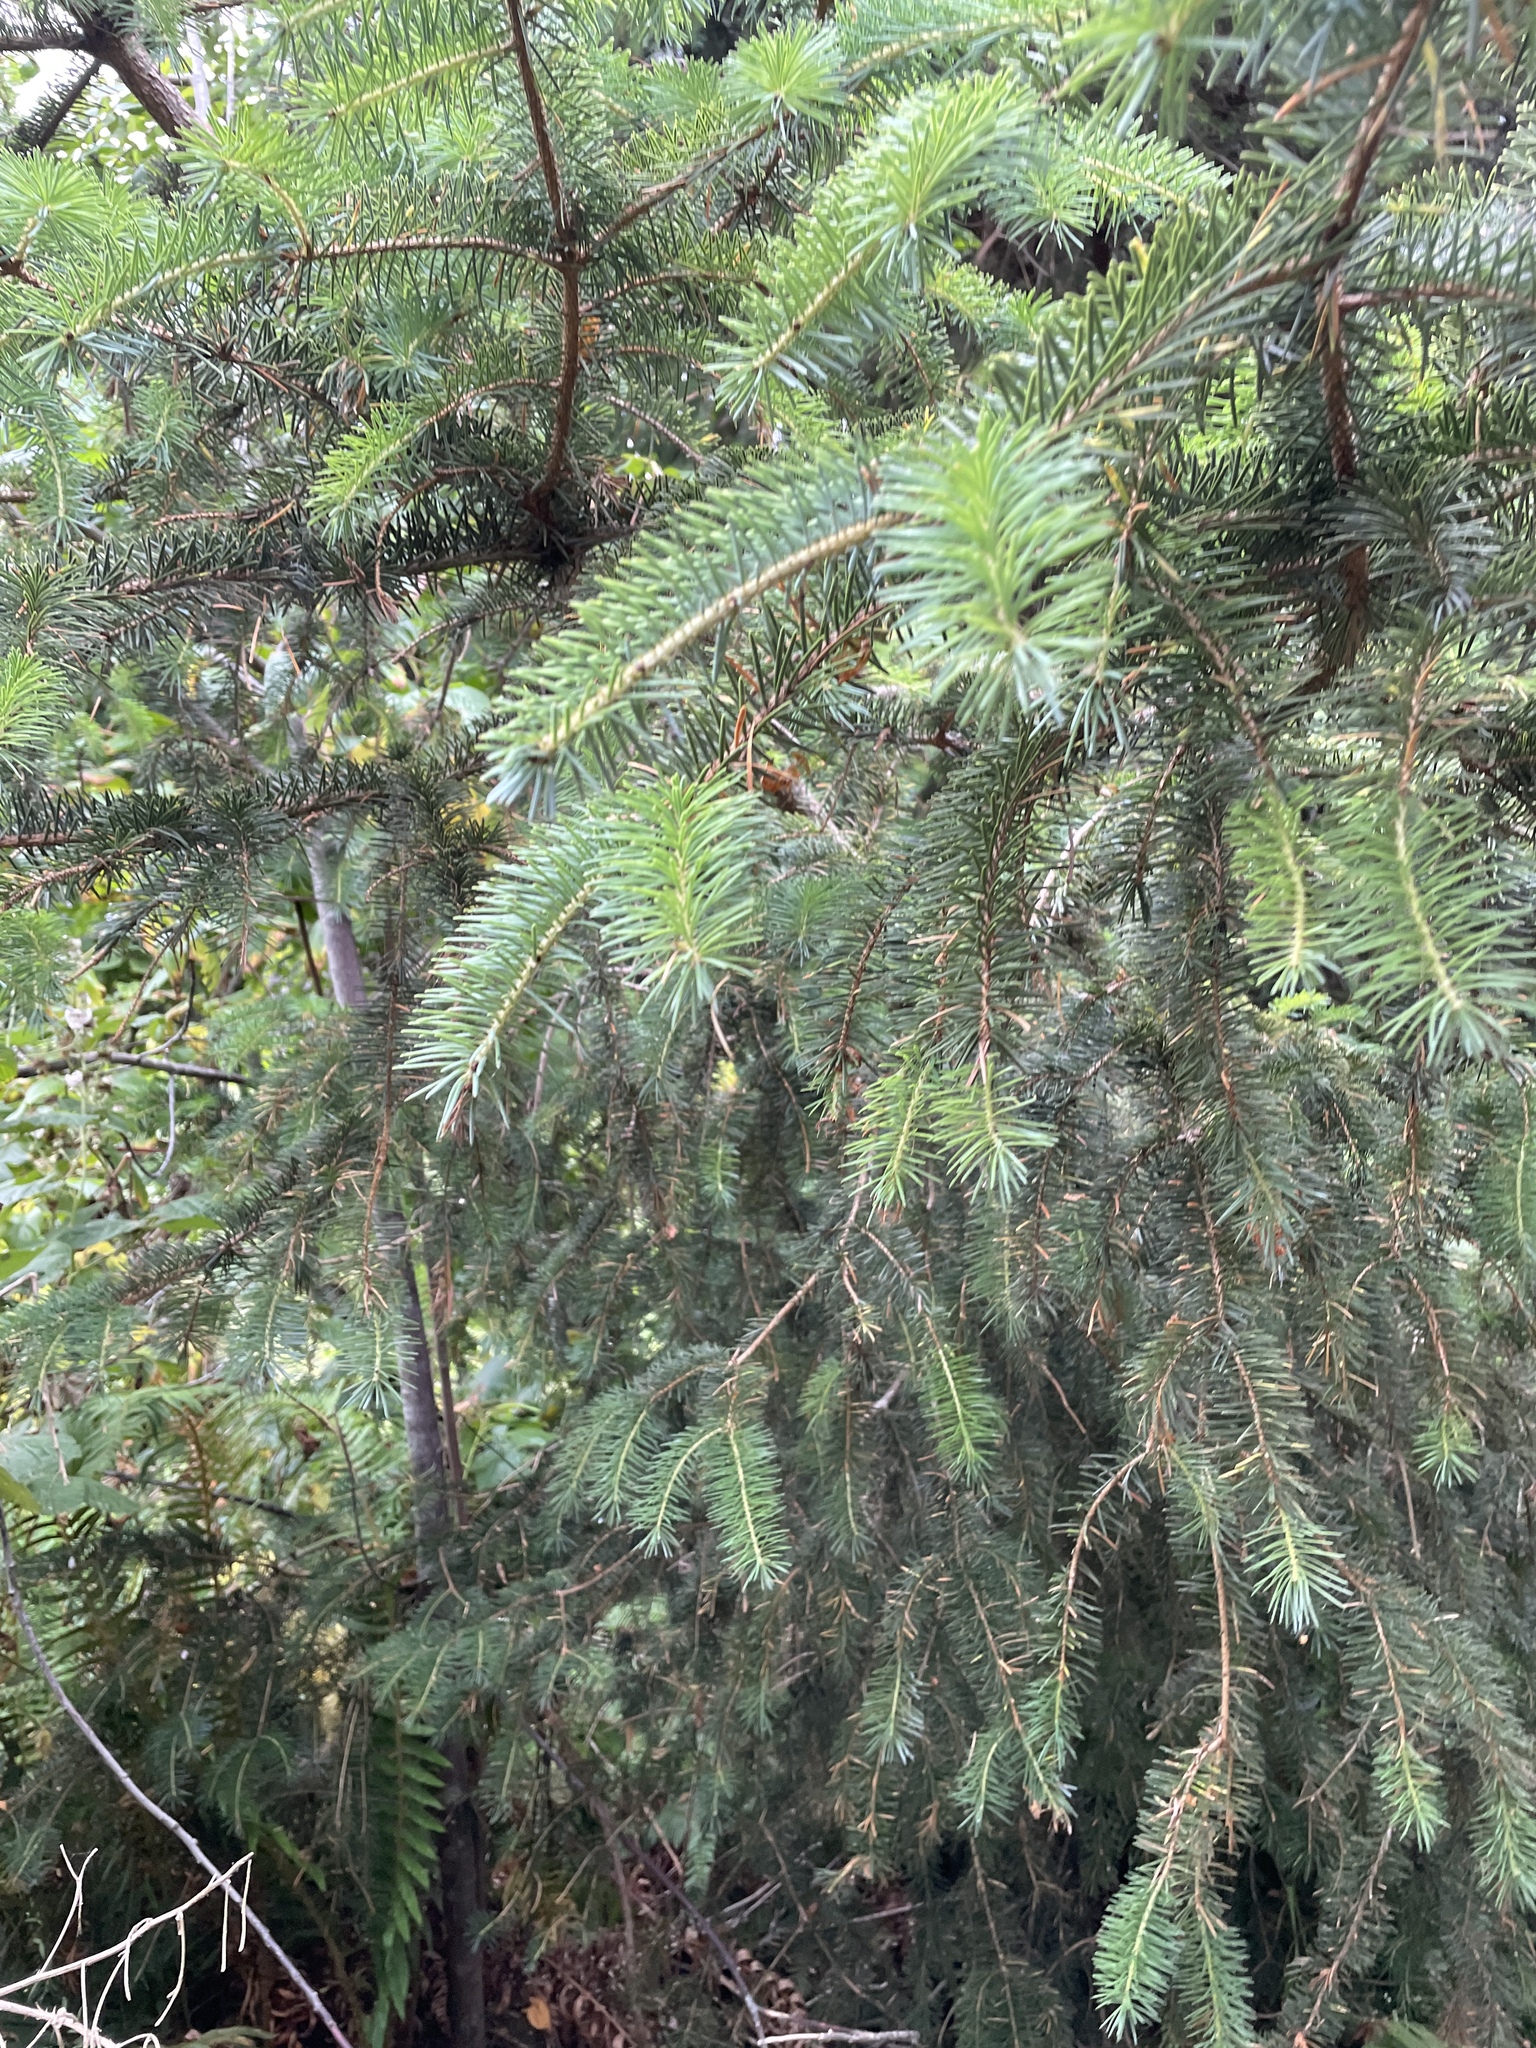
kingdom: Plantae
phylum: Tracheophyta
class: Pinopsida
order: Pinales
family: Pinaceae
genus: Pseudotsuga
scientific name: Pseudotsuga menziesii
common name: Douglas fir
